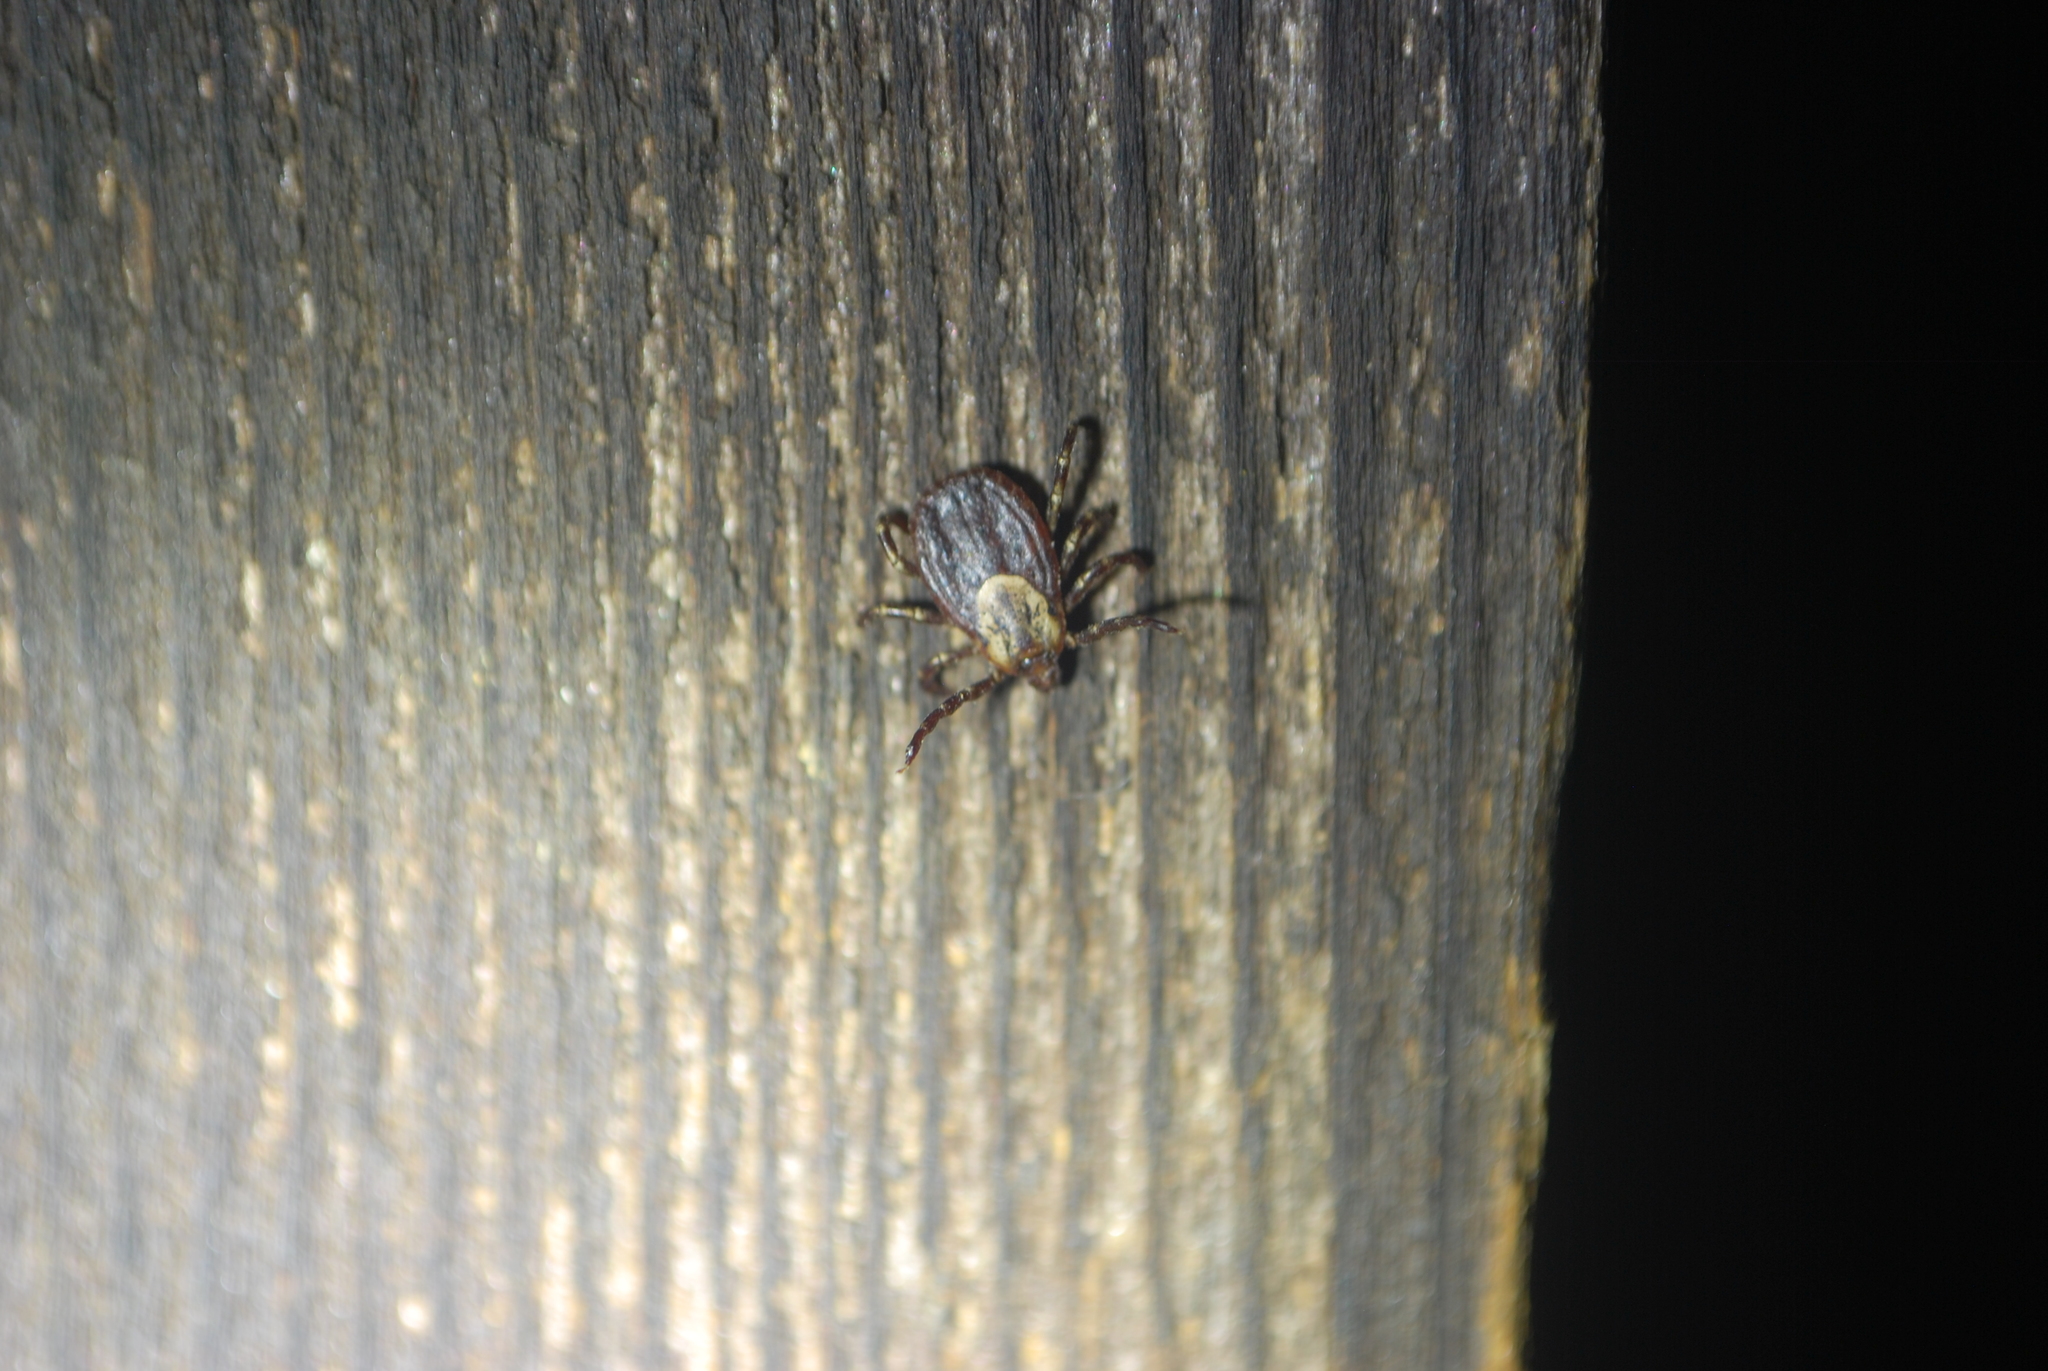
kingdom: Animalia
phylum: Arthropoda
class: Arachnida
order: Ixodida
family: Ixodidae
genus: Dermacentor
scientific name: Dermacentor variabilis
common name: American dog tick
